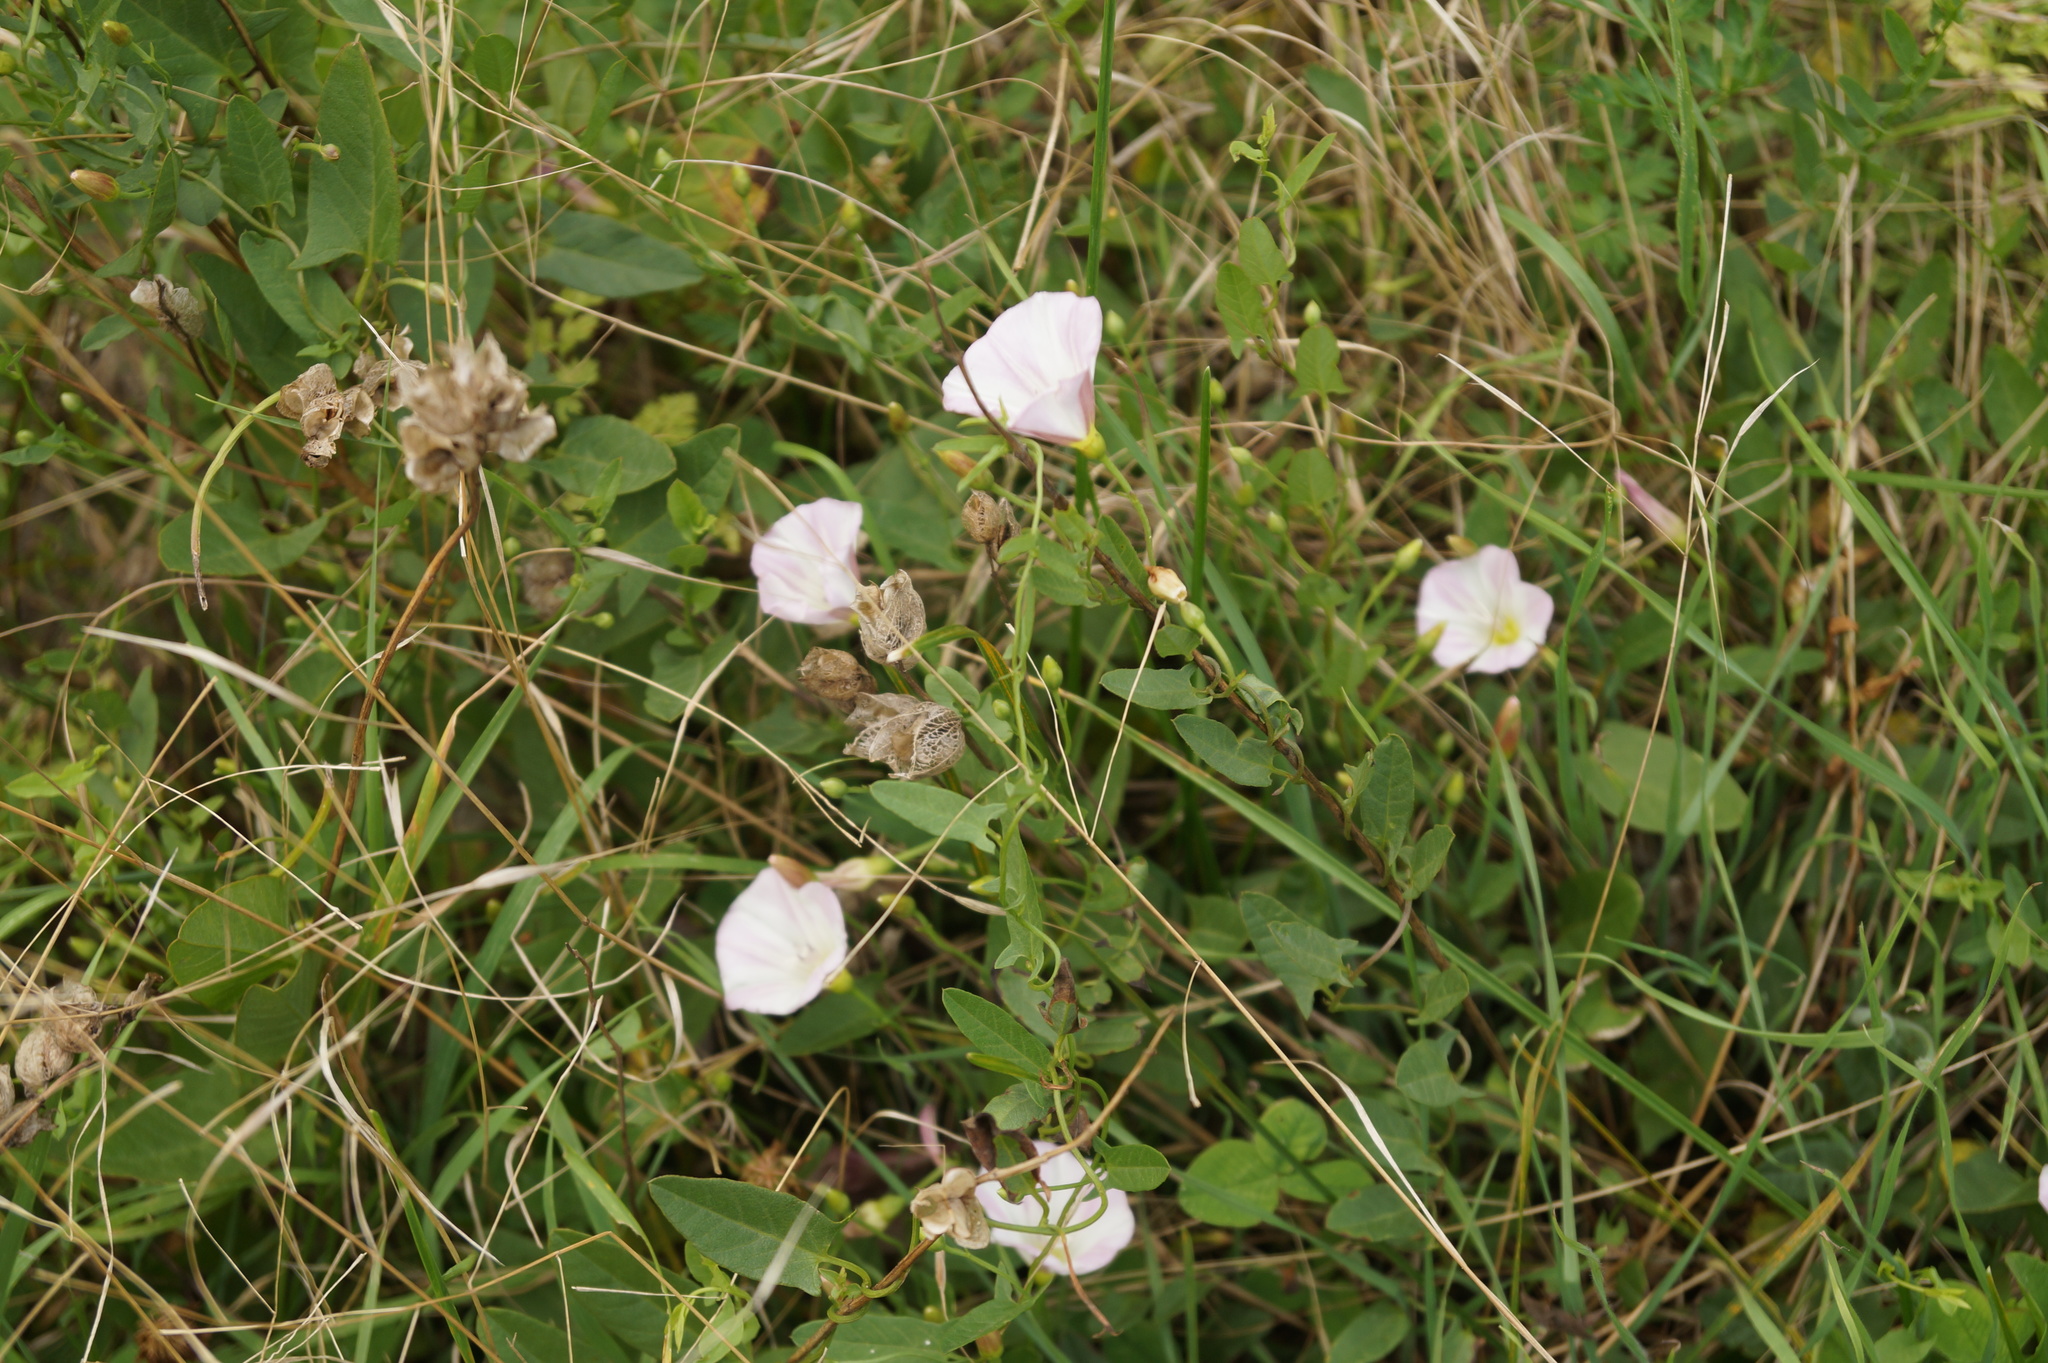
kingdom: Plantae
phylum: Tracheophyta
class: Magnoliopsida
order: Solanales
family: Convolvulaceae
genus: Convolvulus
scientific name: Convolvulus arvensis
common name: Field bindweed
